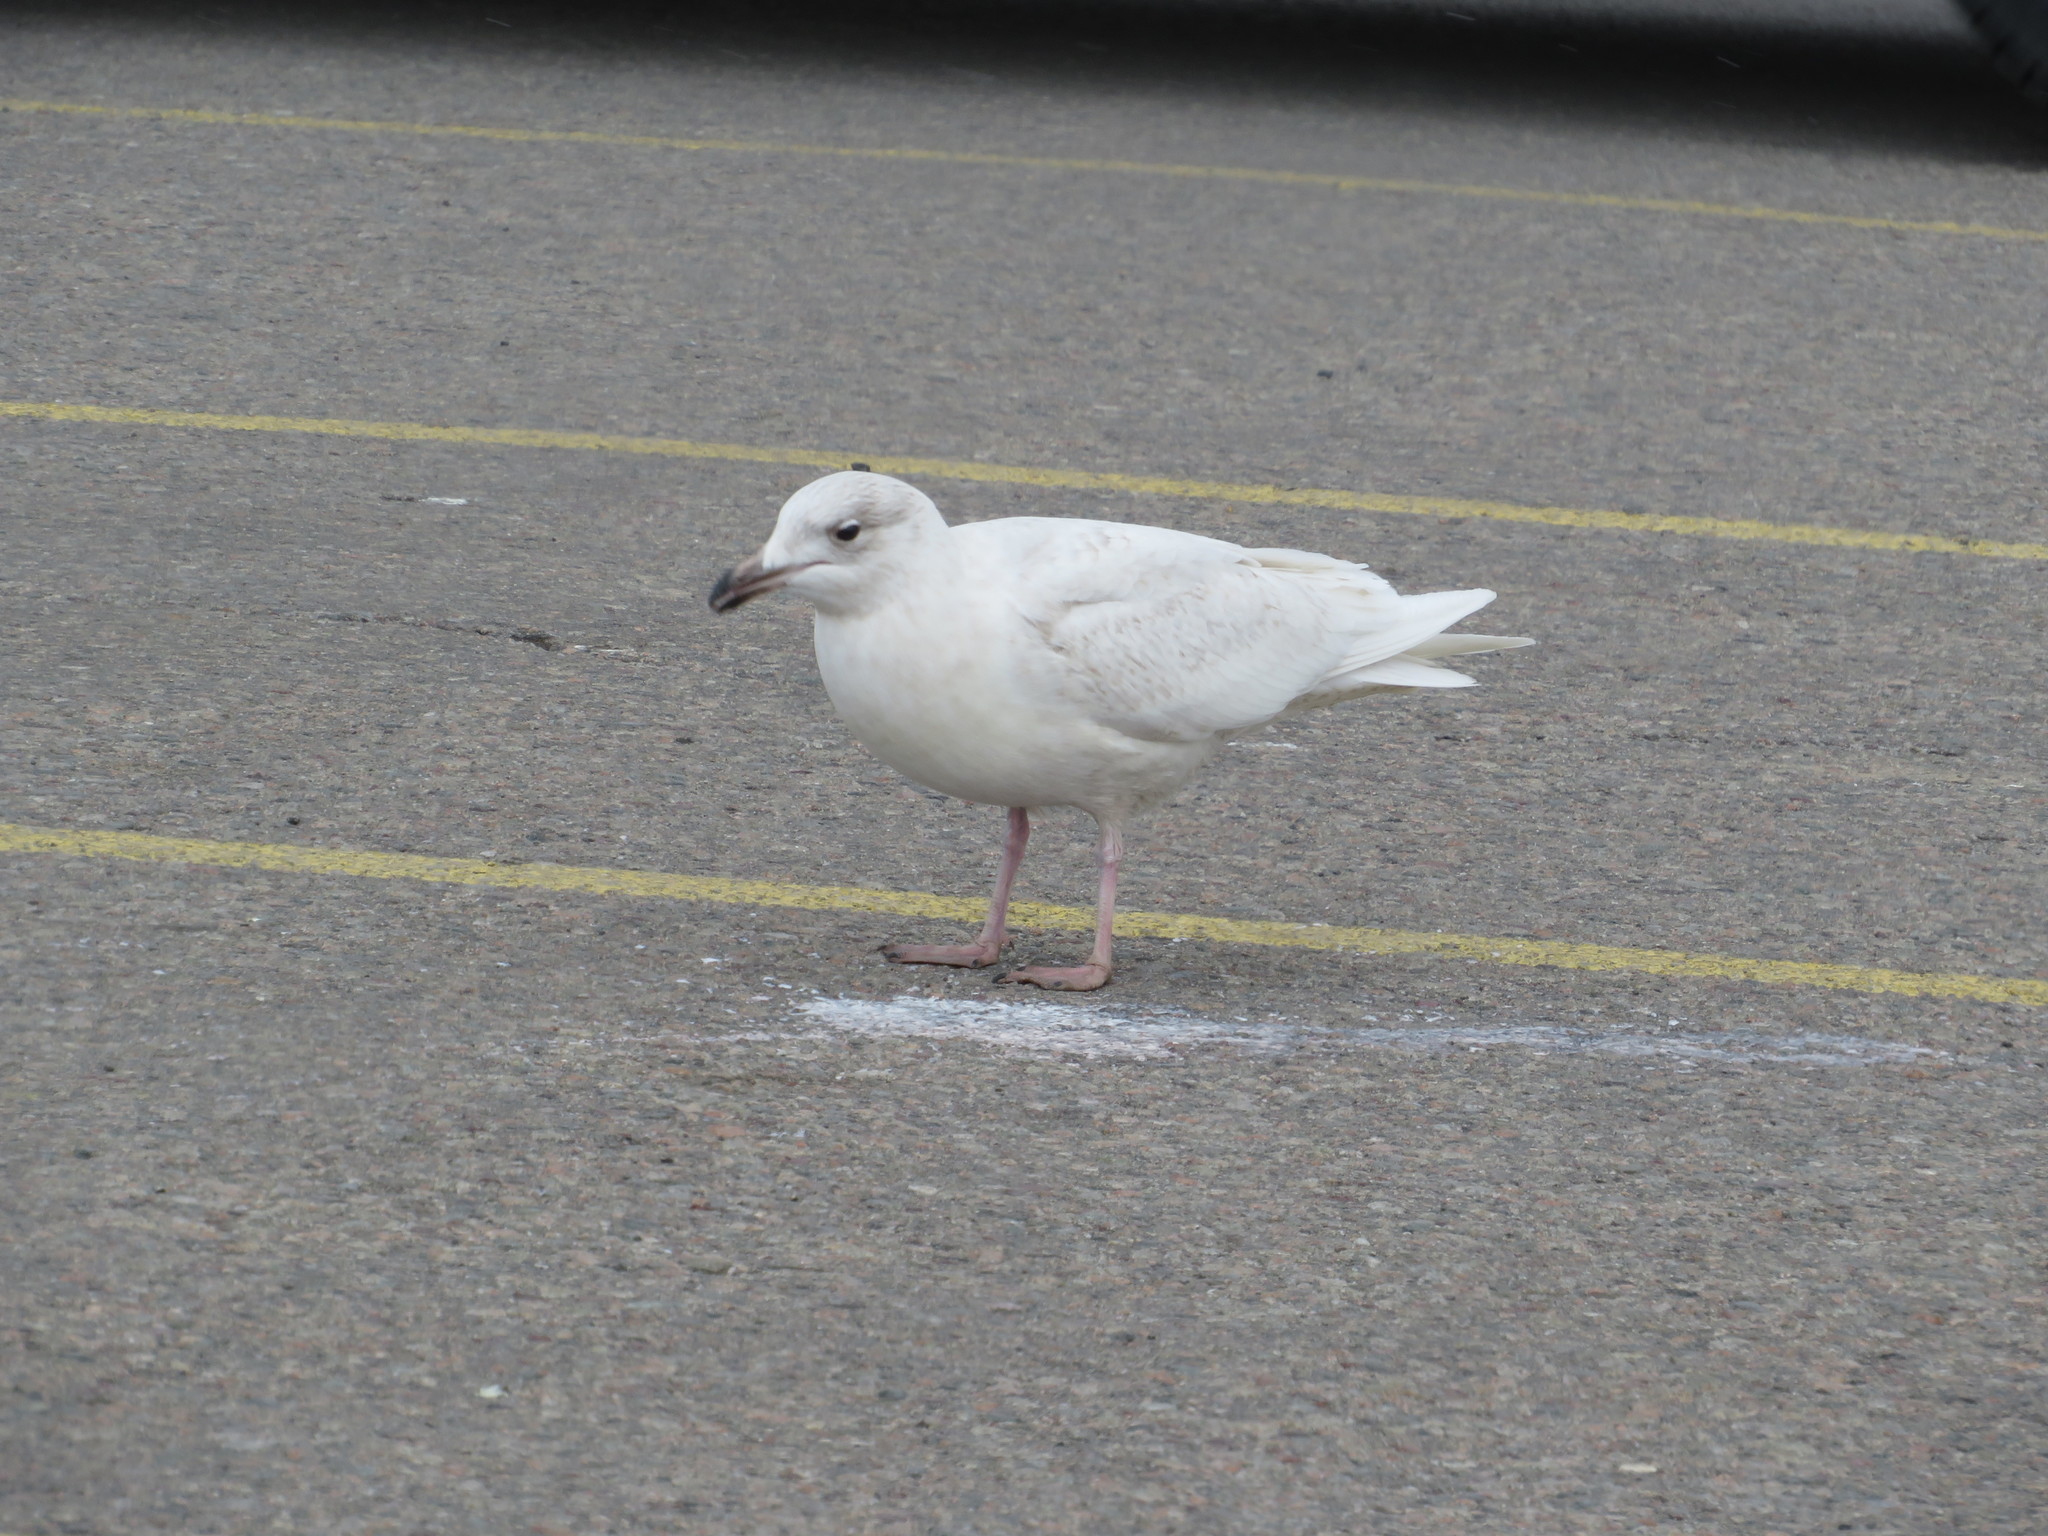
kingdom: Animalia
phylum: Chordata
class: Aves
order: Charadriiformes
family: Laridae
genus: Larus
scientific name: Larus glaucoides
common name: Iceland gull
